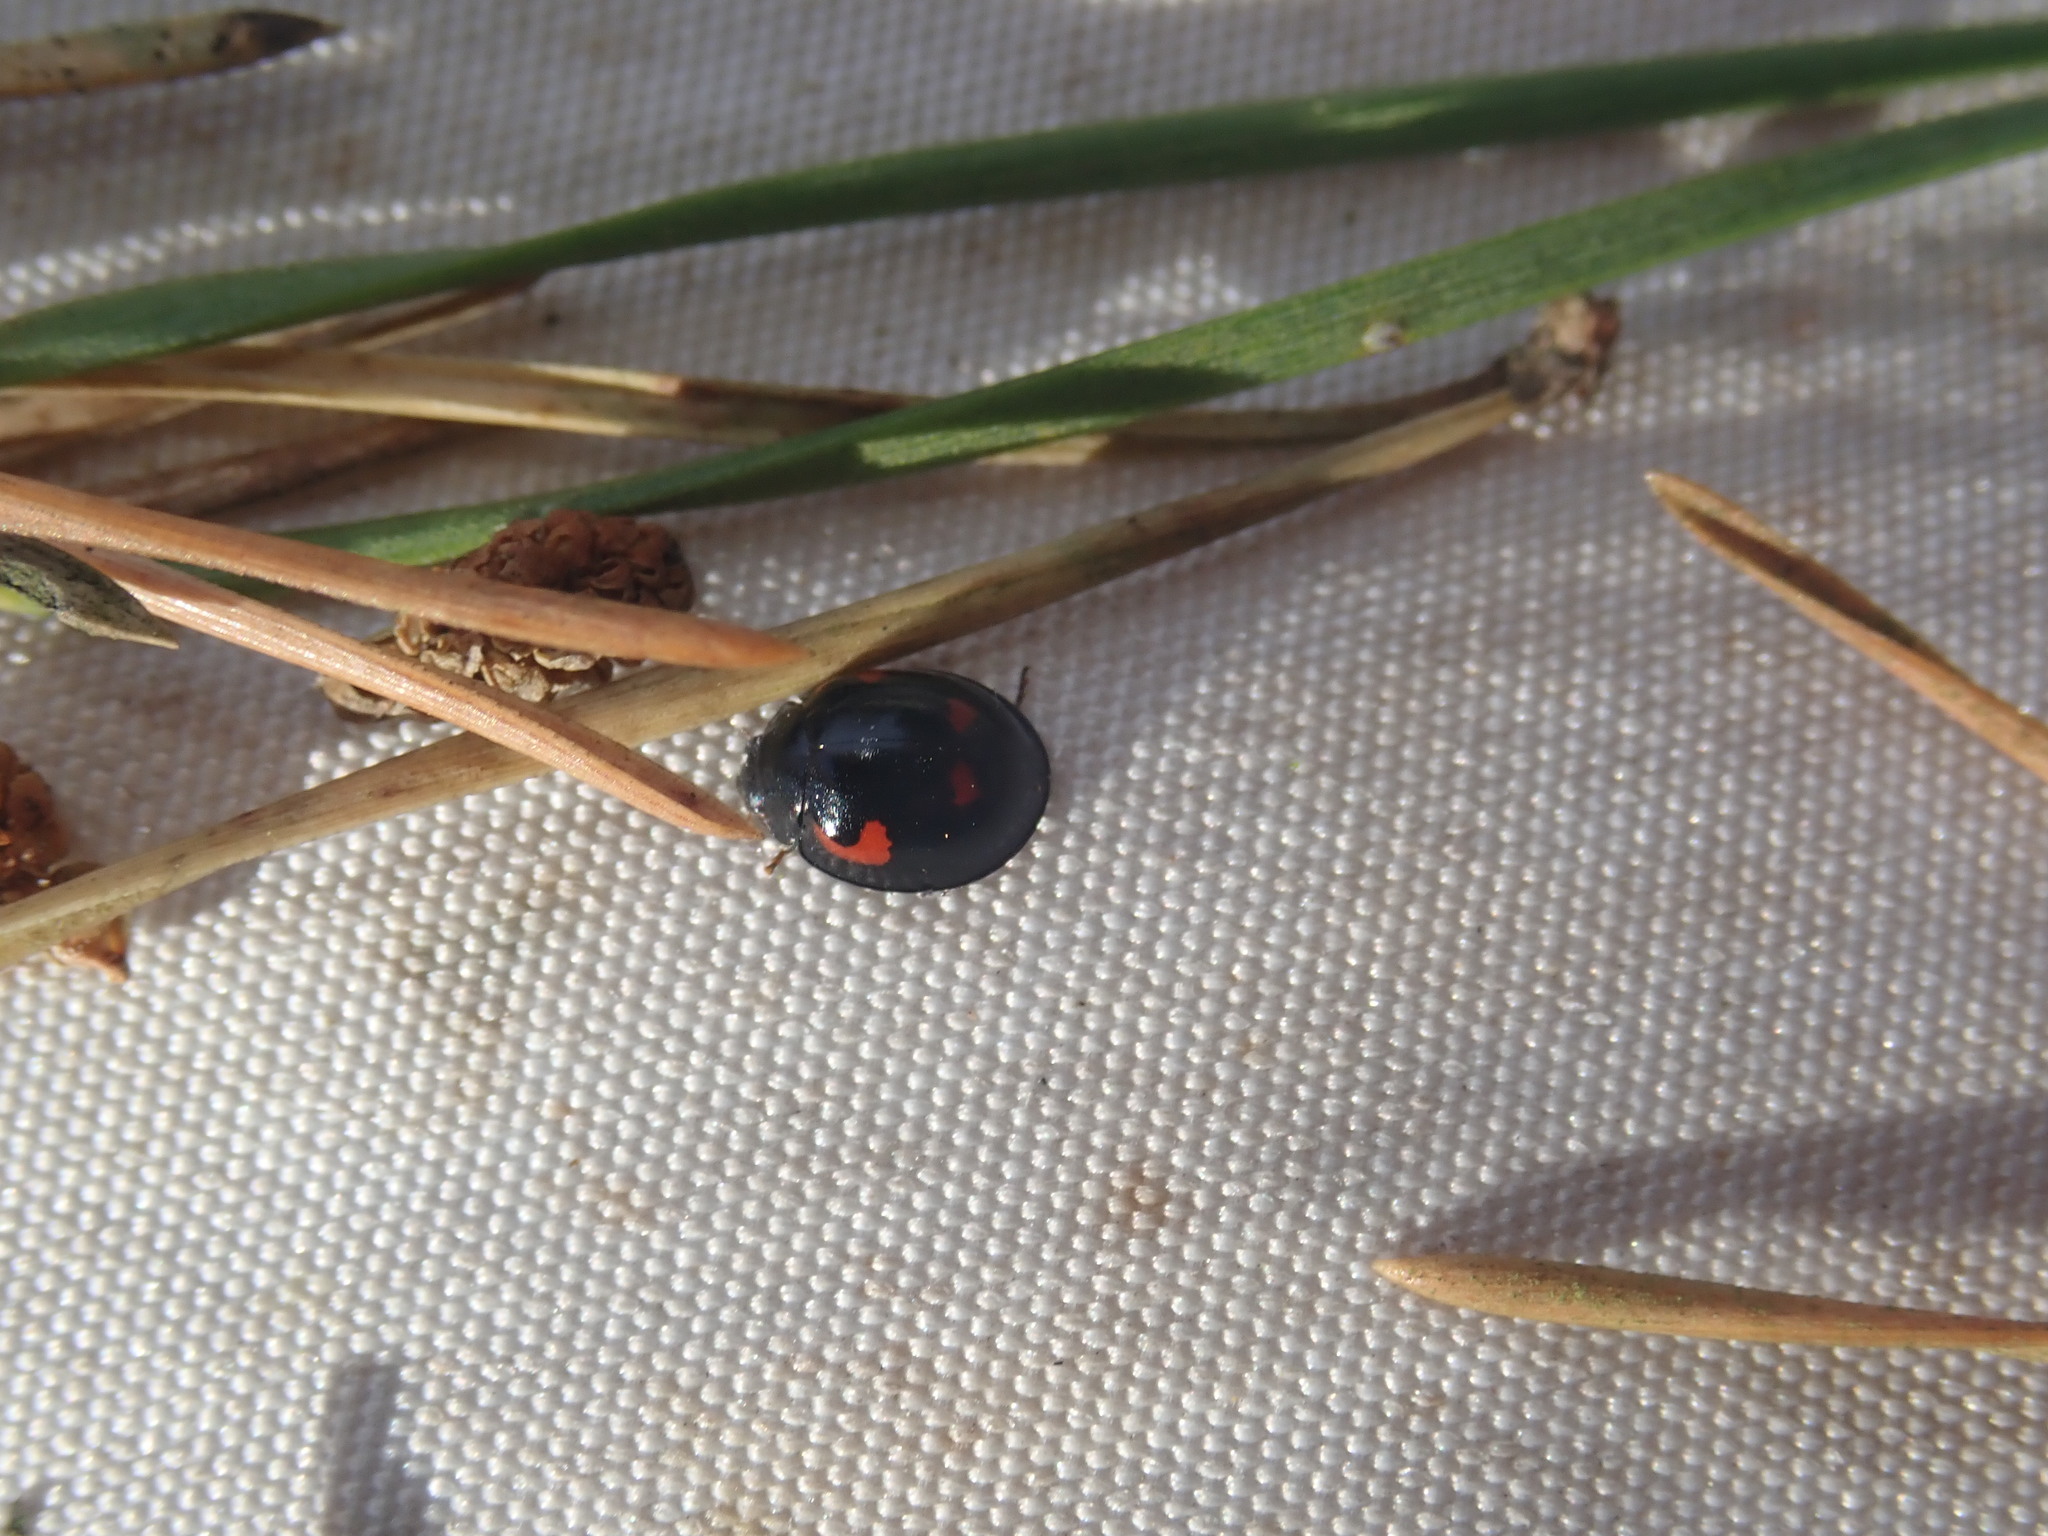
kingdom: Animalia
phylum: Arthropoda
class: Insecta
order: Coleoptera
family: Coccinellidae
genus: Brumus
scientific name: Brumus quadripustulatus
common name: Ladybird beetle
